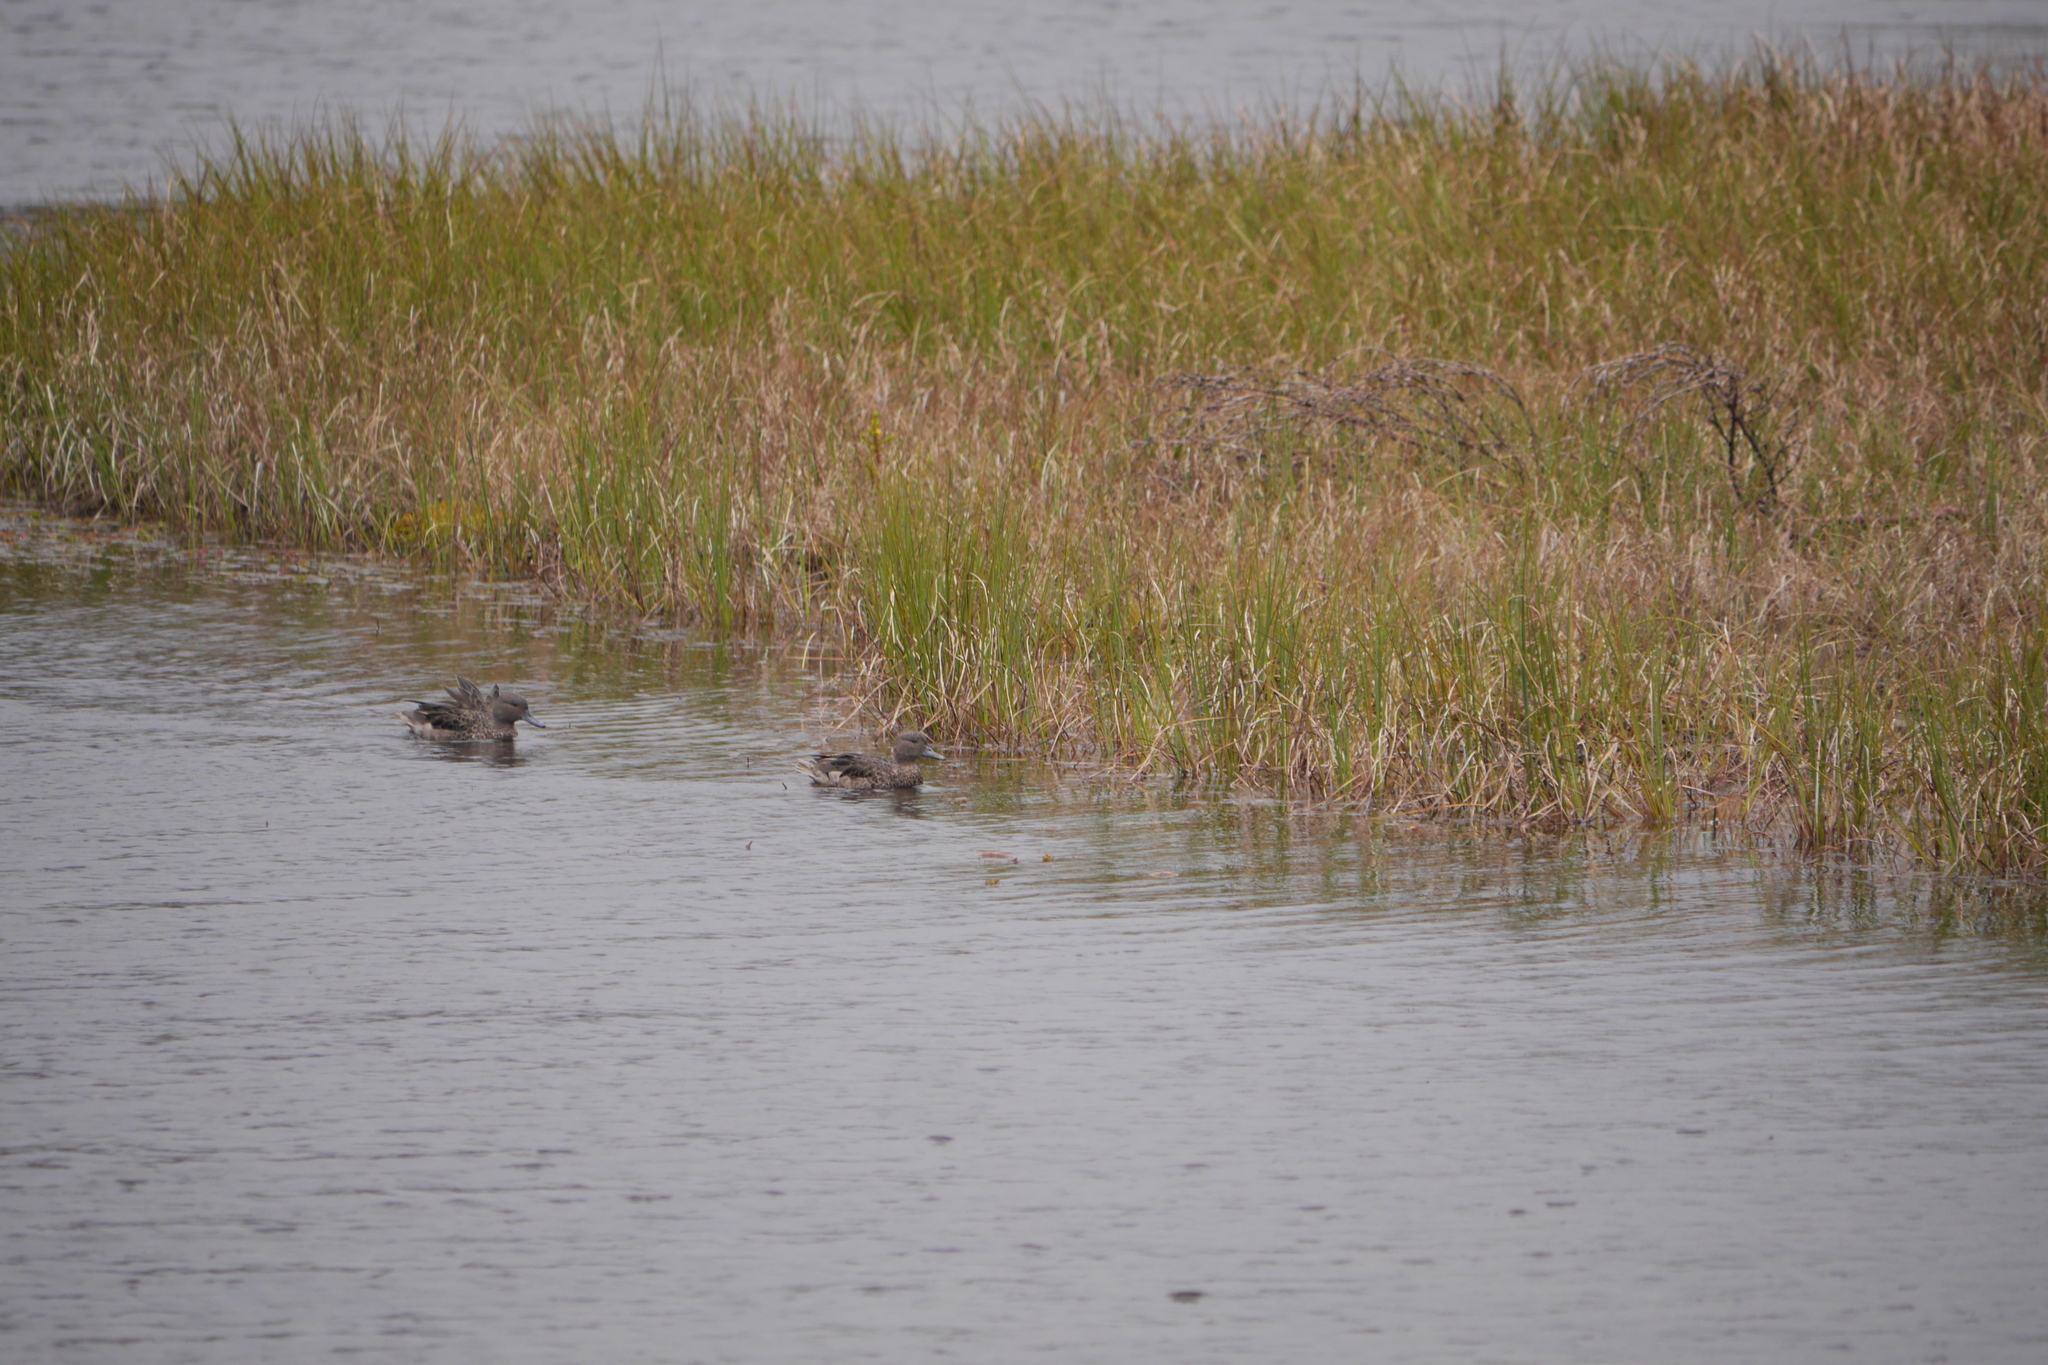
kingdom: Animalia
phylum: Chordata
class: Aves
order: Anseriformes
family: Anatidae
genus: Anas
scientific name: Anas andium
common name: Andean teal
